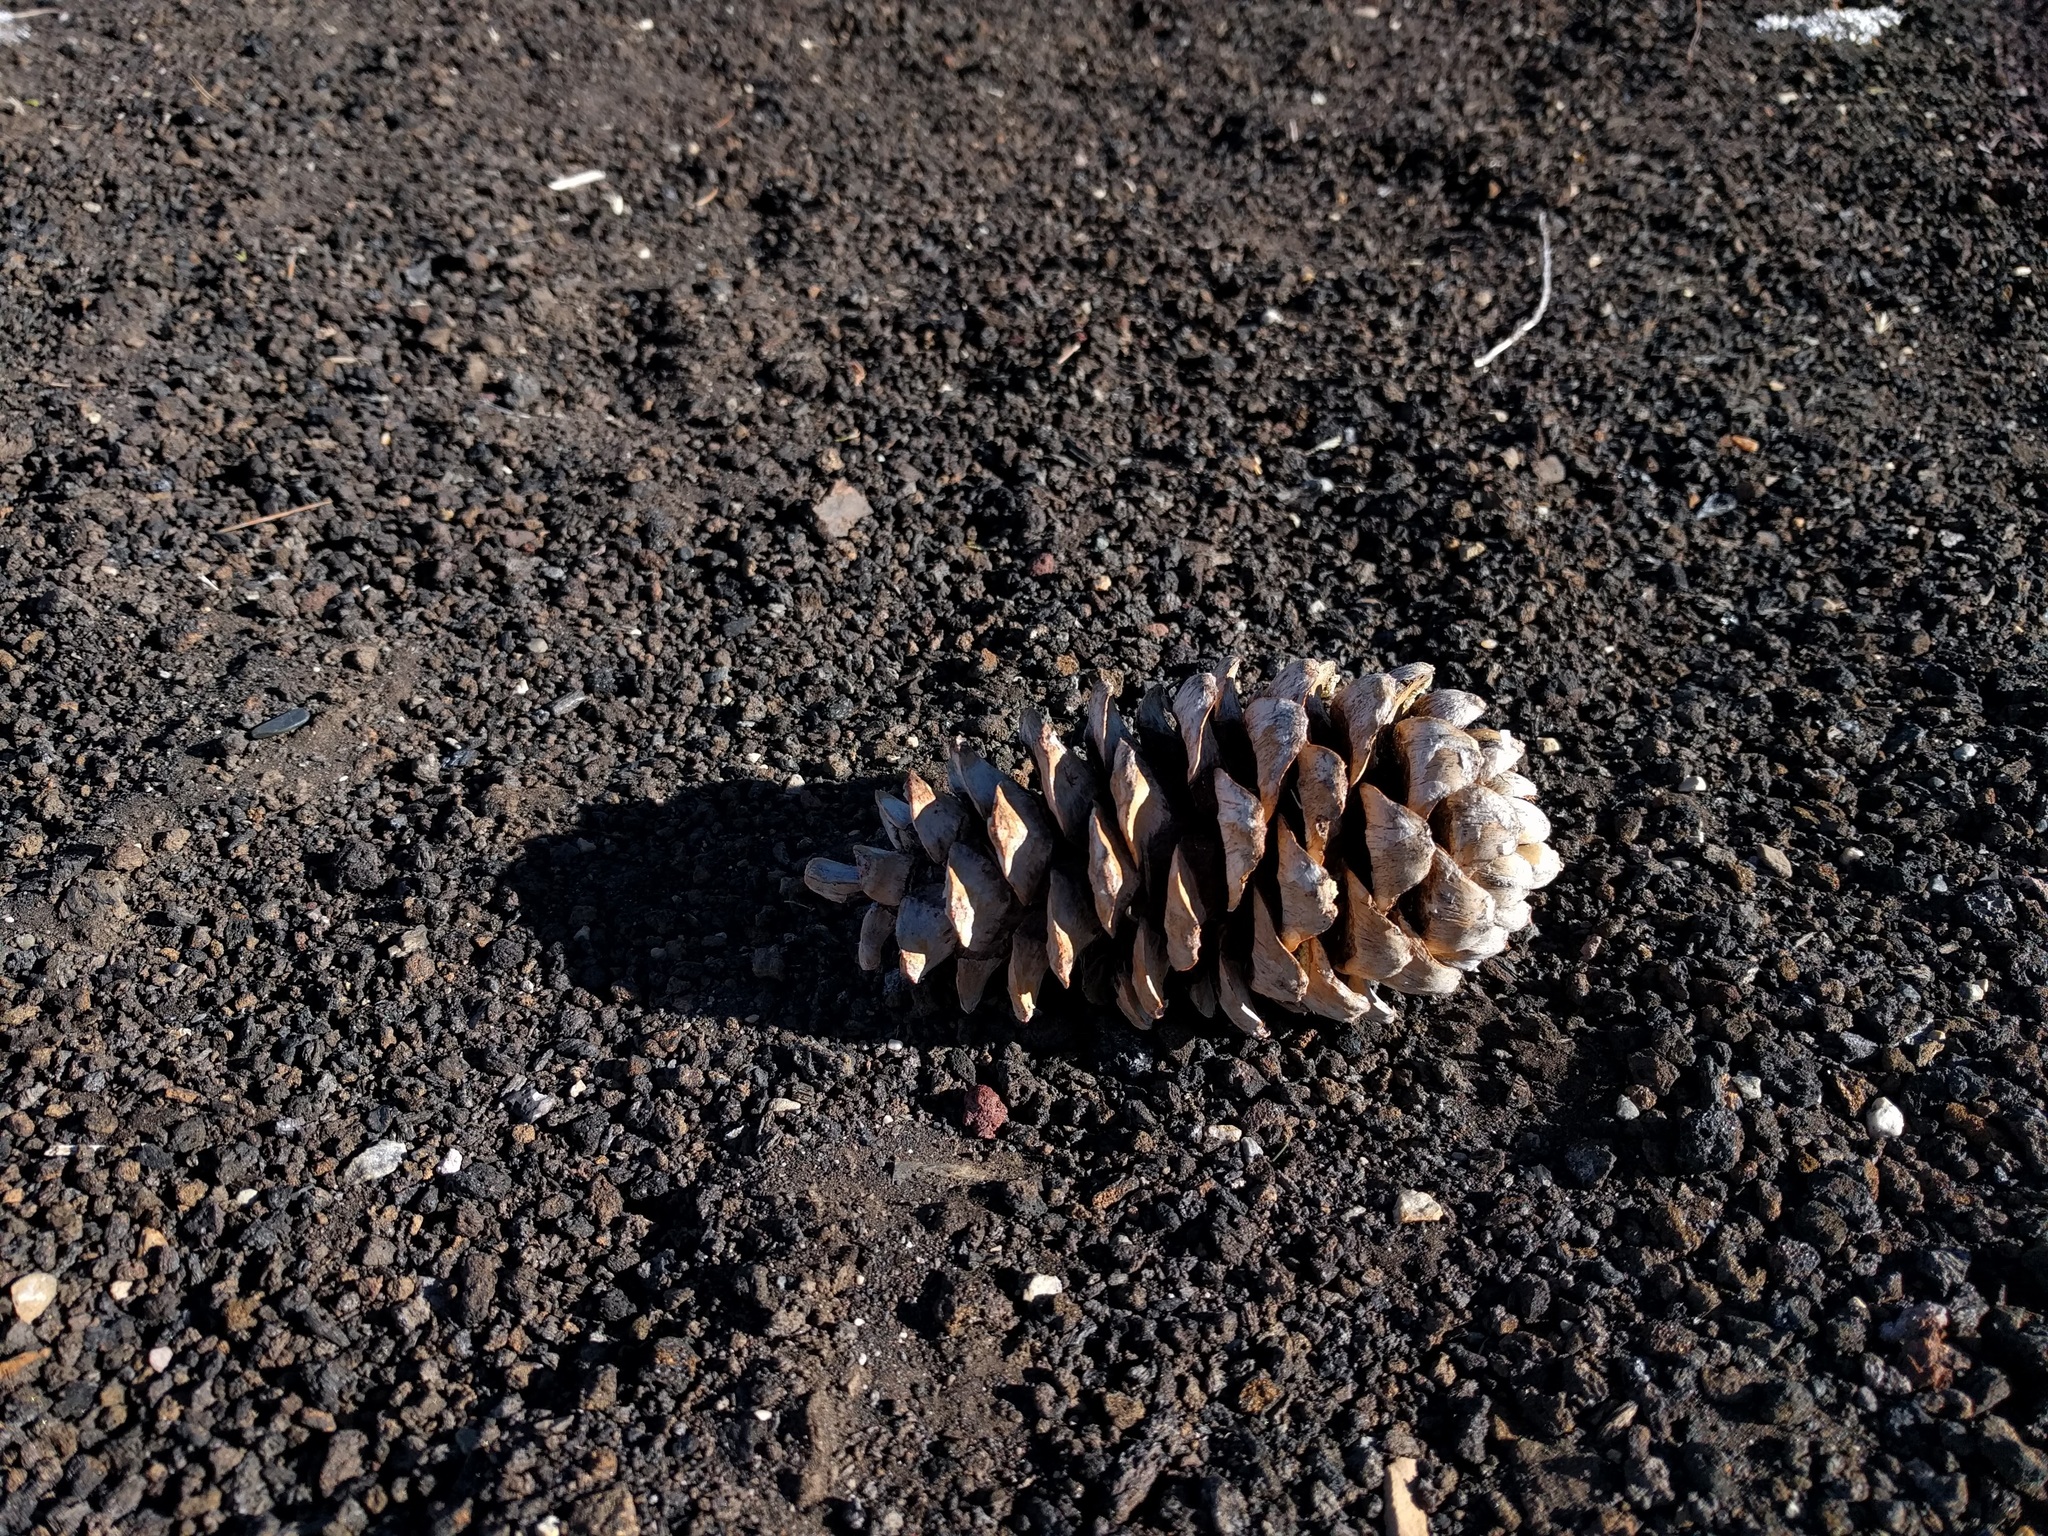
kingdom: Plantae
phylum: Tracheophyta
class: Pinopsida
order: Pinales
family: Pinaceae
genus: Pinus
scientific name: Pinus flexilis
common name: Limber pine
